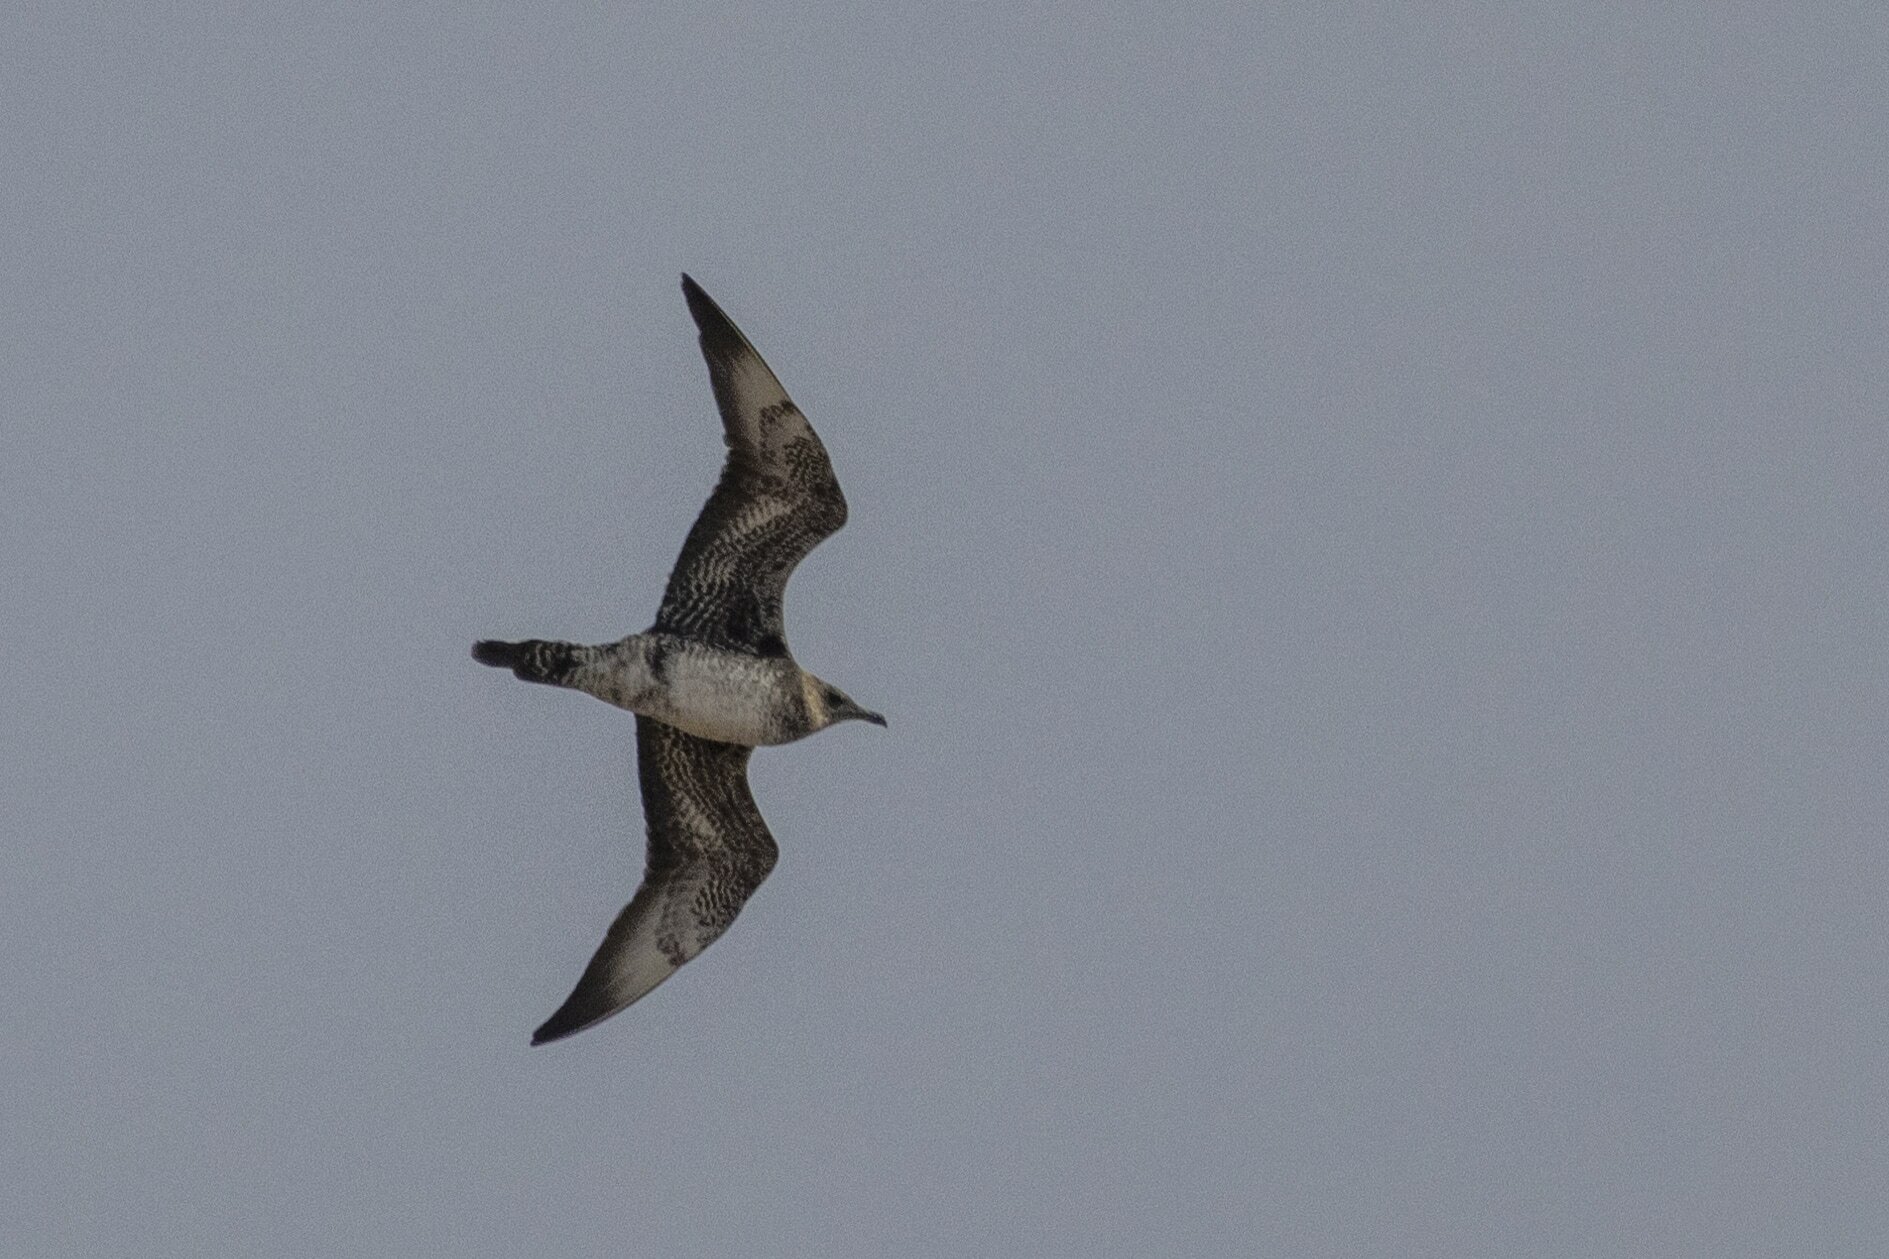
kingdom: Animalia
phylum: Chordata
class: Aves
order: Charadriiformes
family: Stercorariidae
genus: Stercorarius
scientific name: Stercorarius pomarinus
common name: Pomarine jaeger
